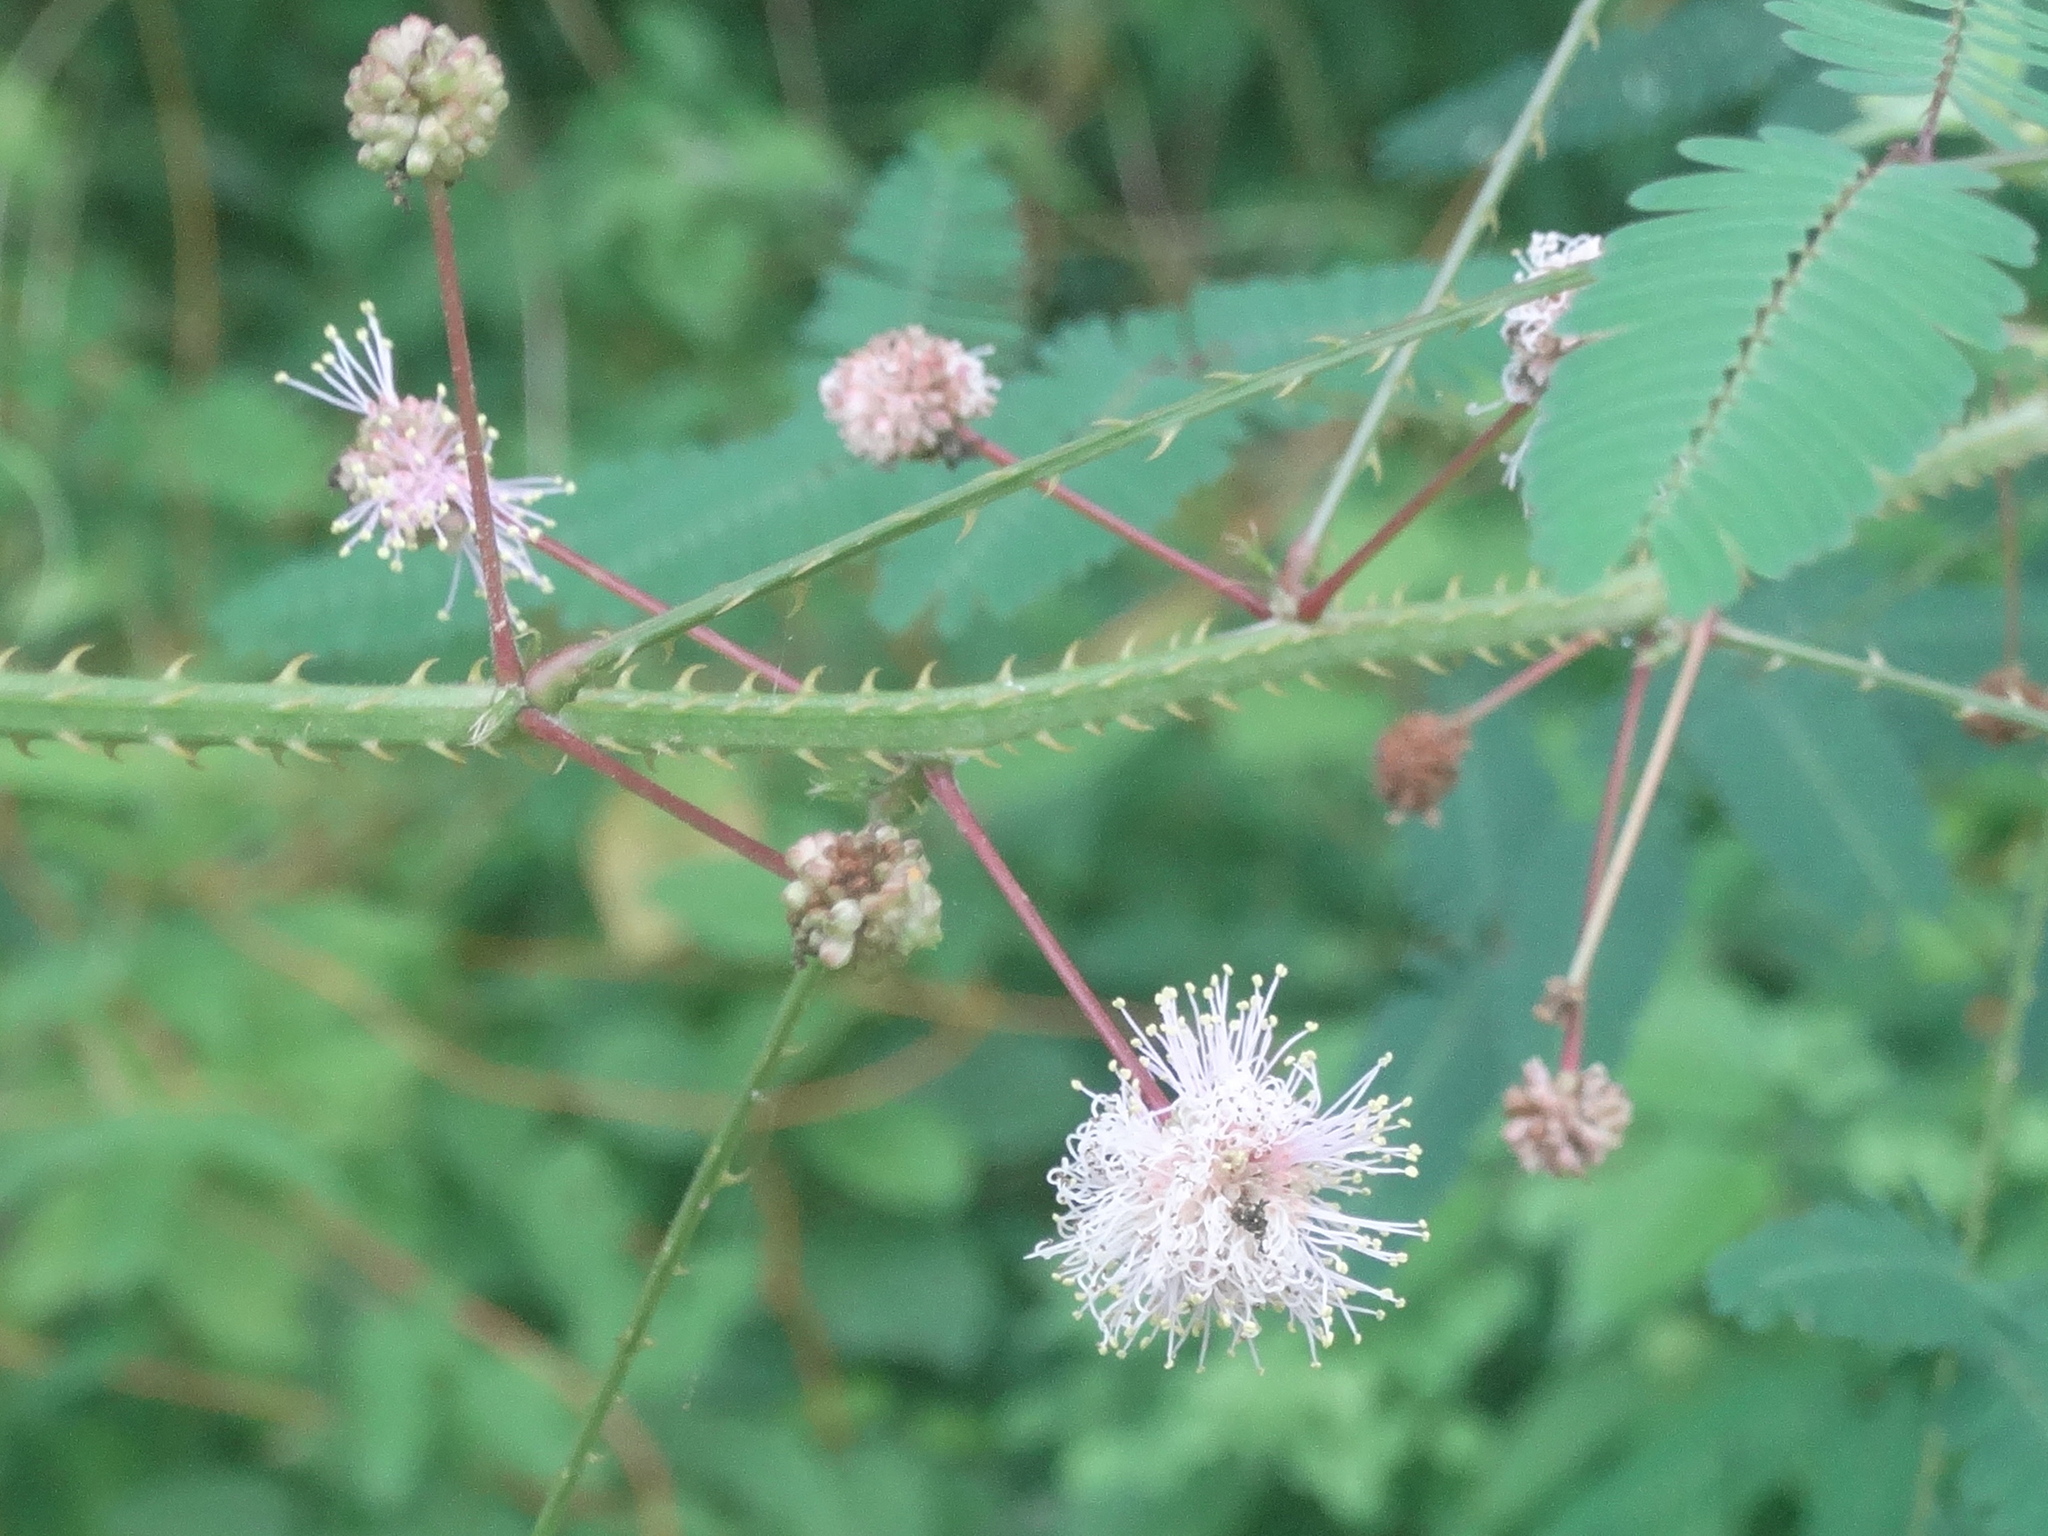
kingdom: Plantae
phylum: Tracheophyta
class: Magnoliopsida
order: Fabales
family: Fabaceae
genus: Mimosa
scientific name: Mimosa
